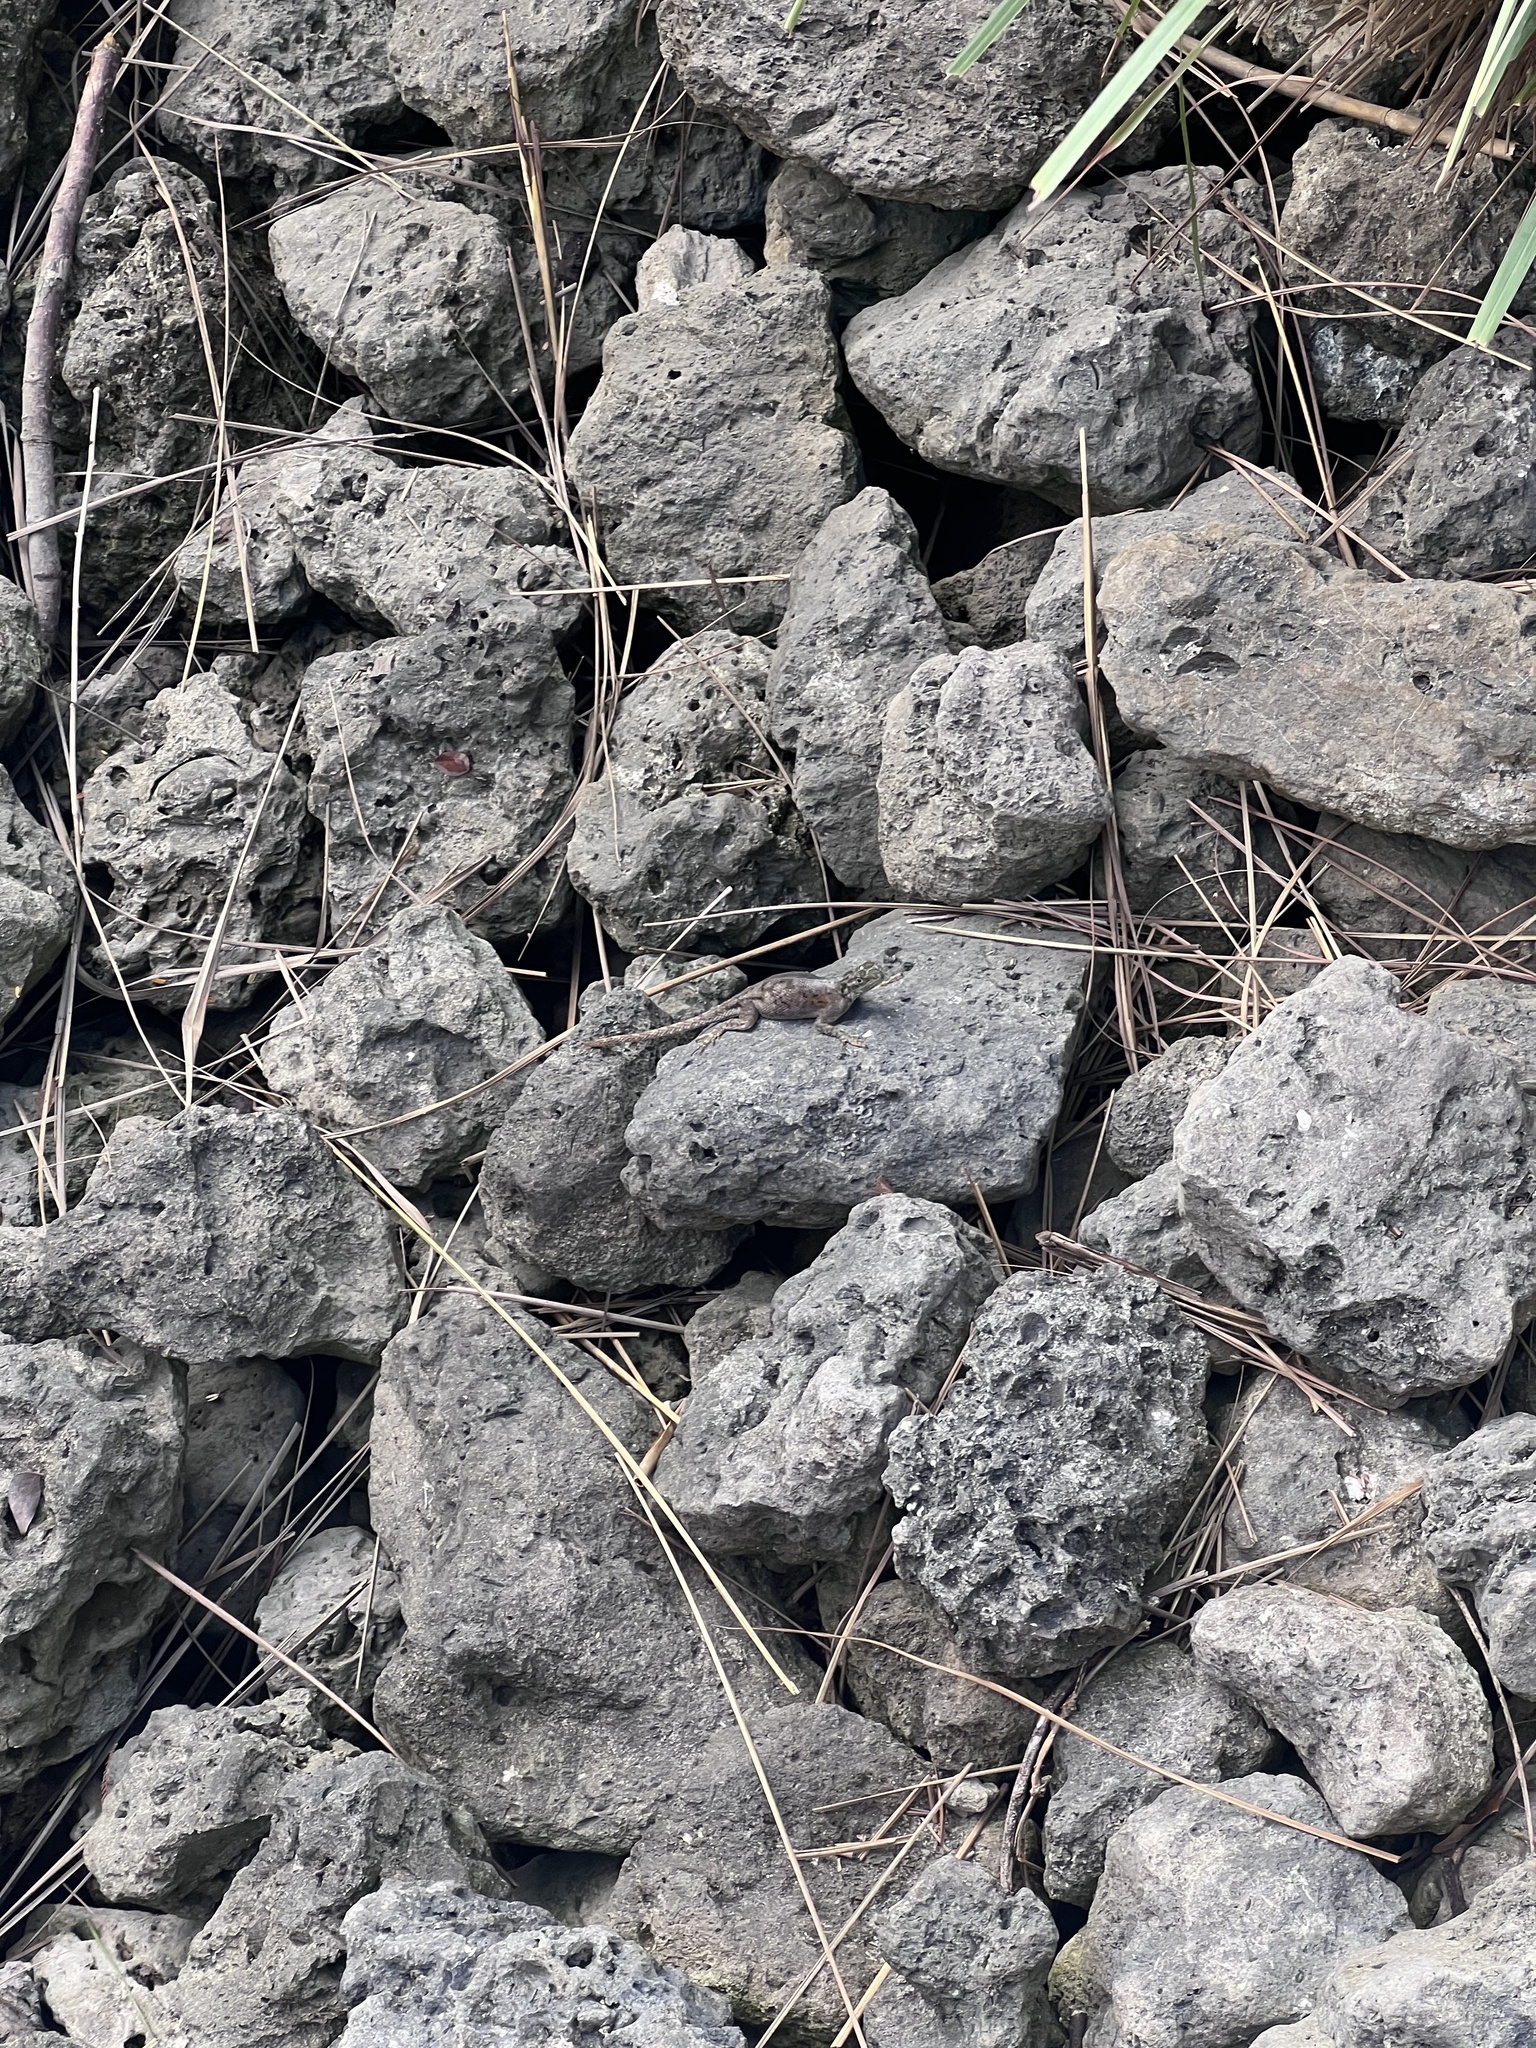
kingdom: Animalia
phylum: Chordata
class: Squamata
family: Agamidae
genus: Agama
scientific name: Agama picticauda
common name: Red-headed agama
